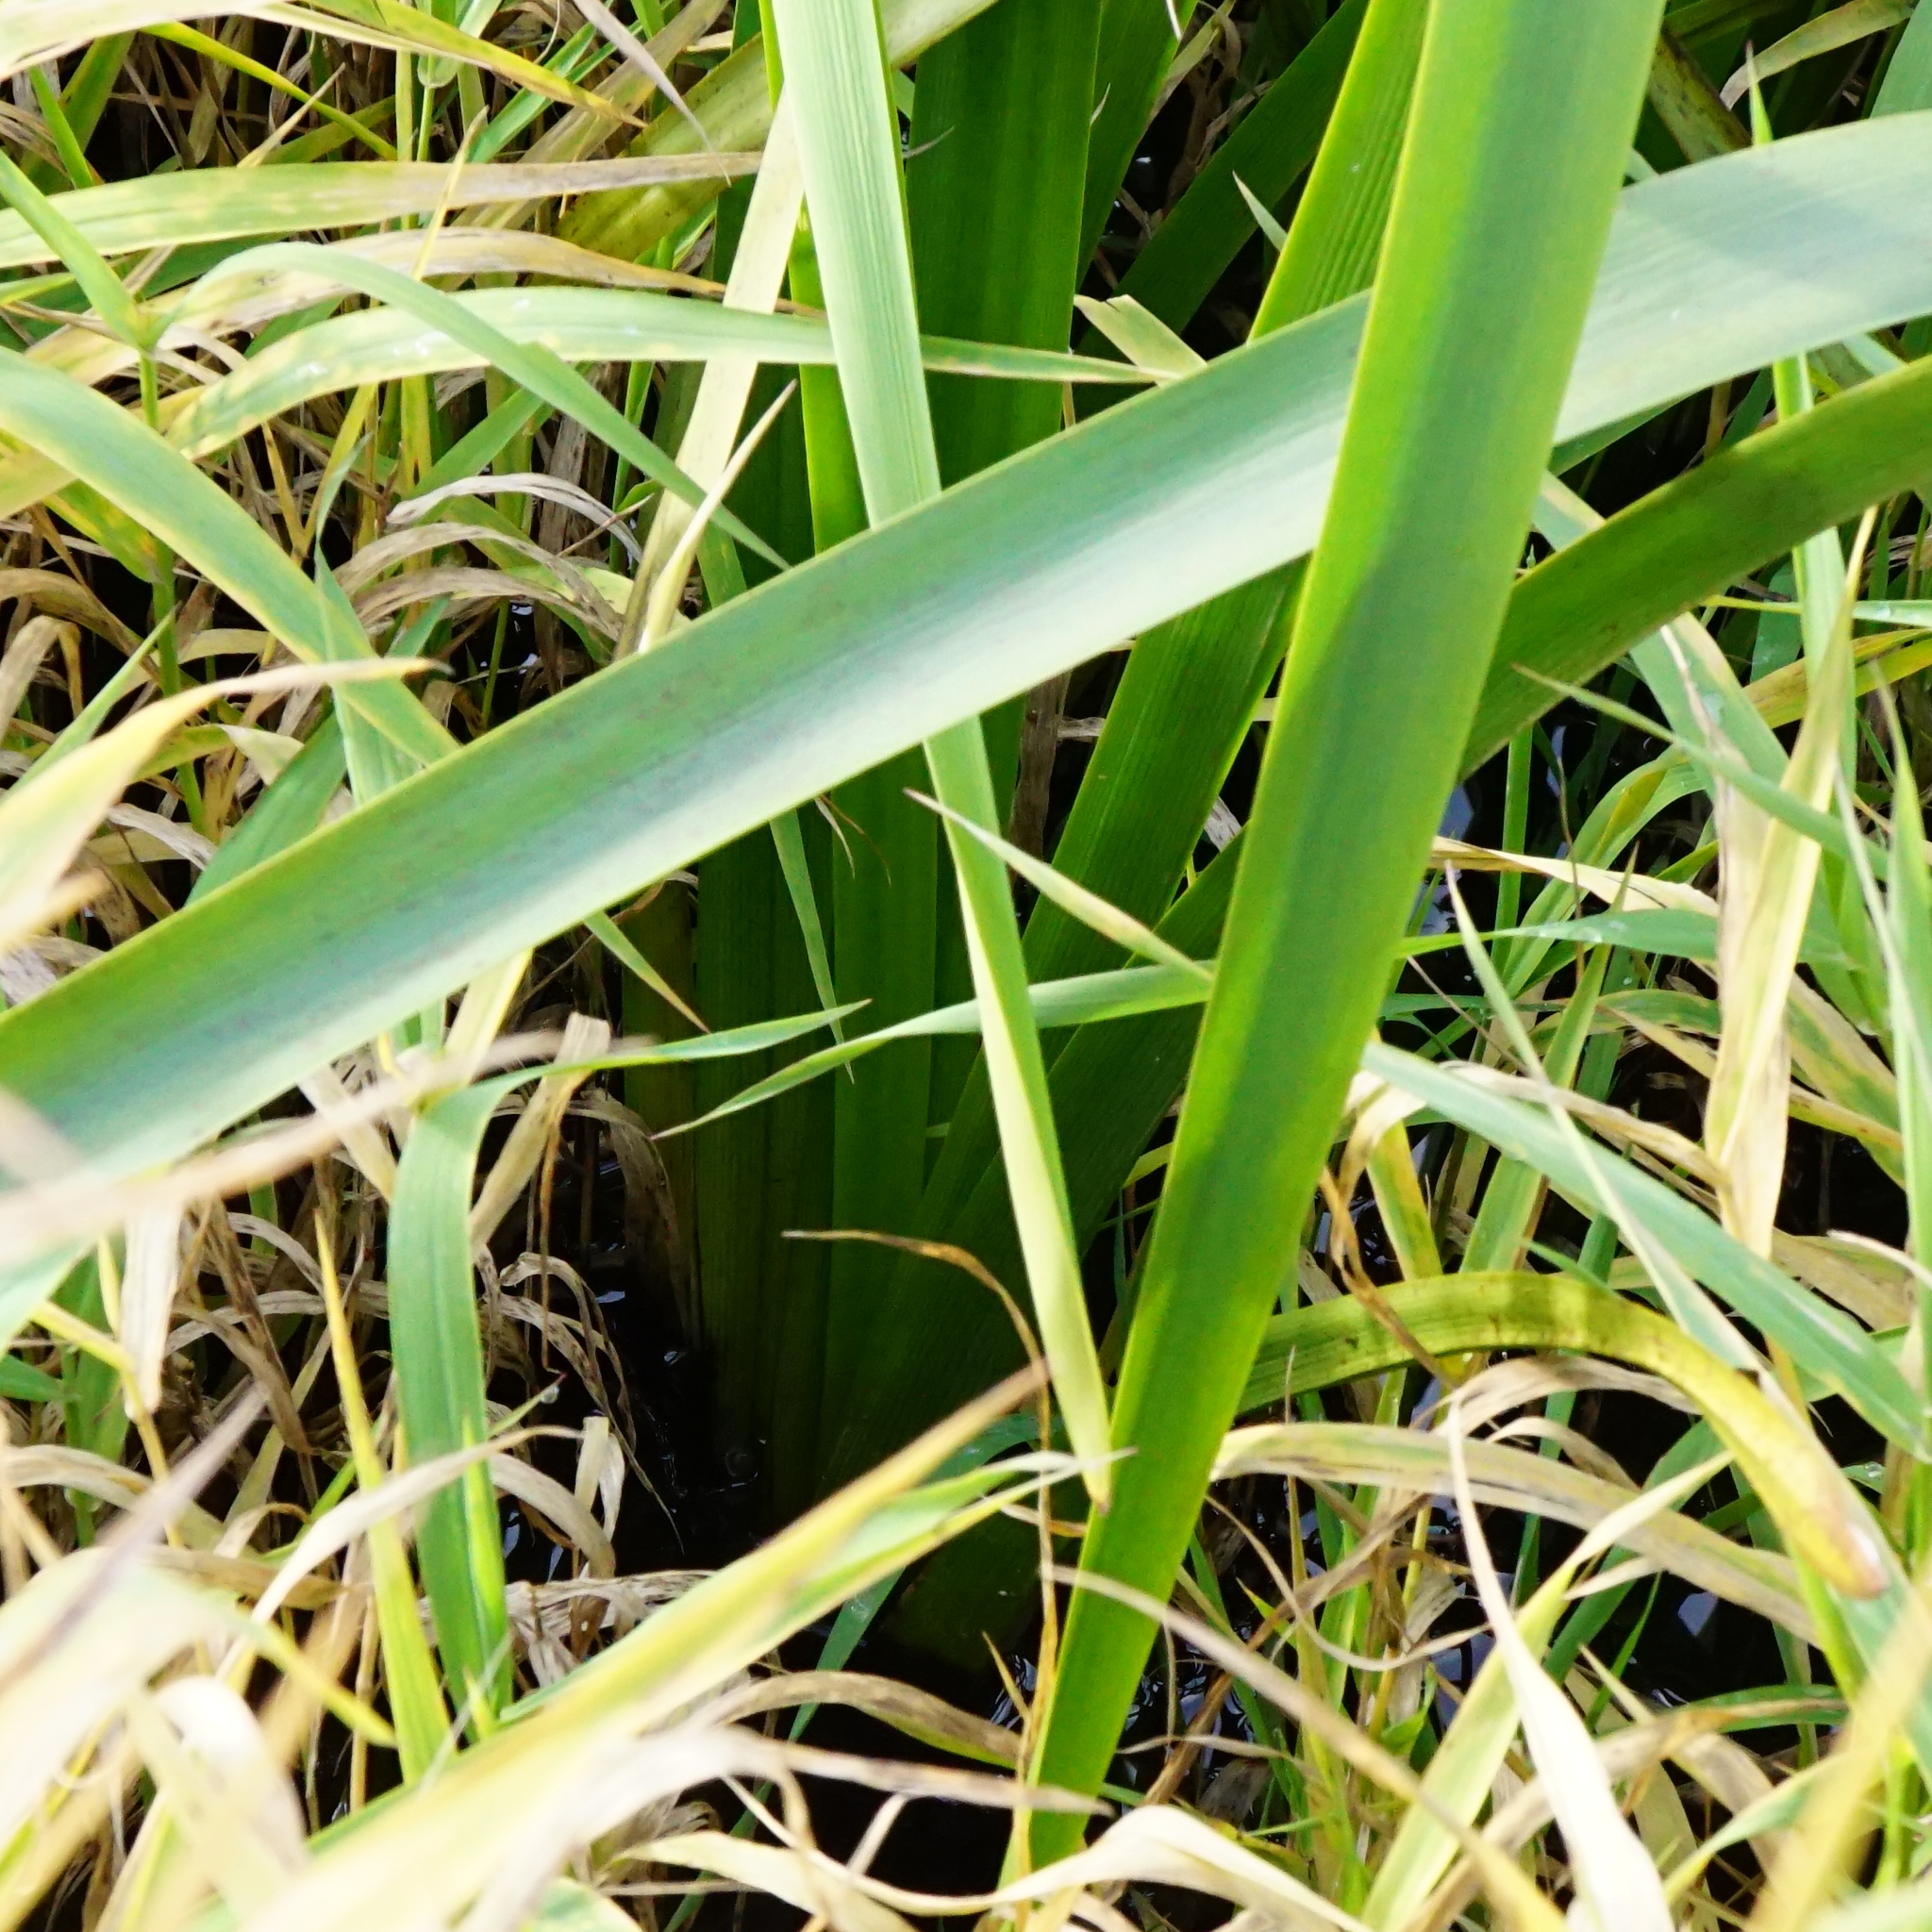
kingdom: Plantae
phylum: Tracheophyta
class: Liliopsida
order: Asparagales
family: Iridaceae
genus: Iris
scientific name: Iris pseudacorus
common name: Yellow flag
